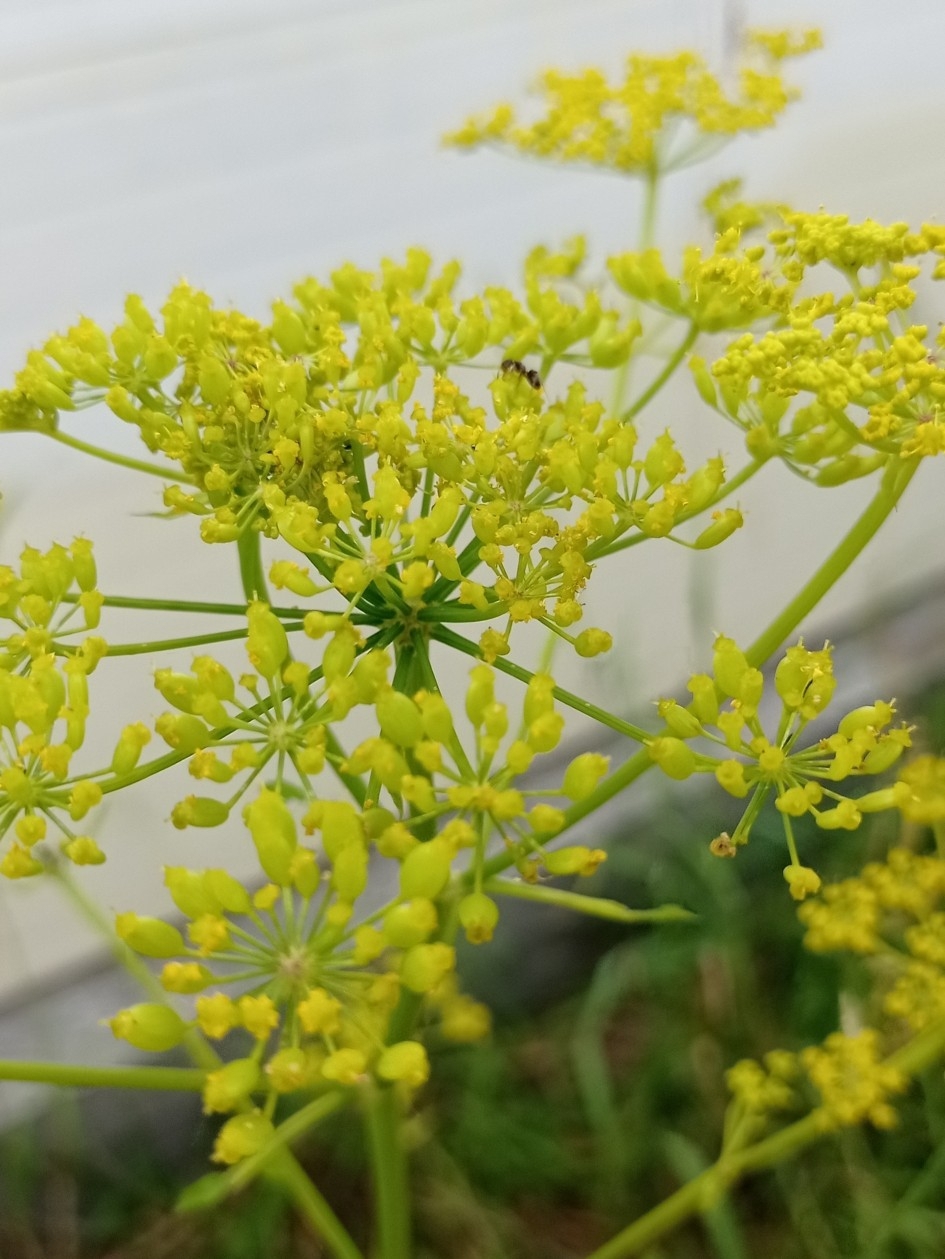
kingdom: Plantae
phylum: Tracheophyta
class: Magnoliopsida
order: Apiales
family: Apiaceae
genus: Pastinaca
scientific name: Pastinaca sativa
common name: Wild parsnip
